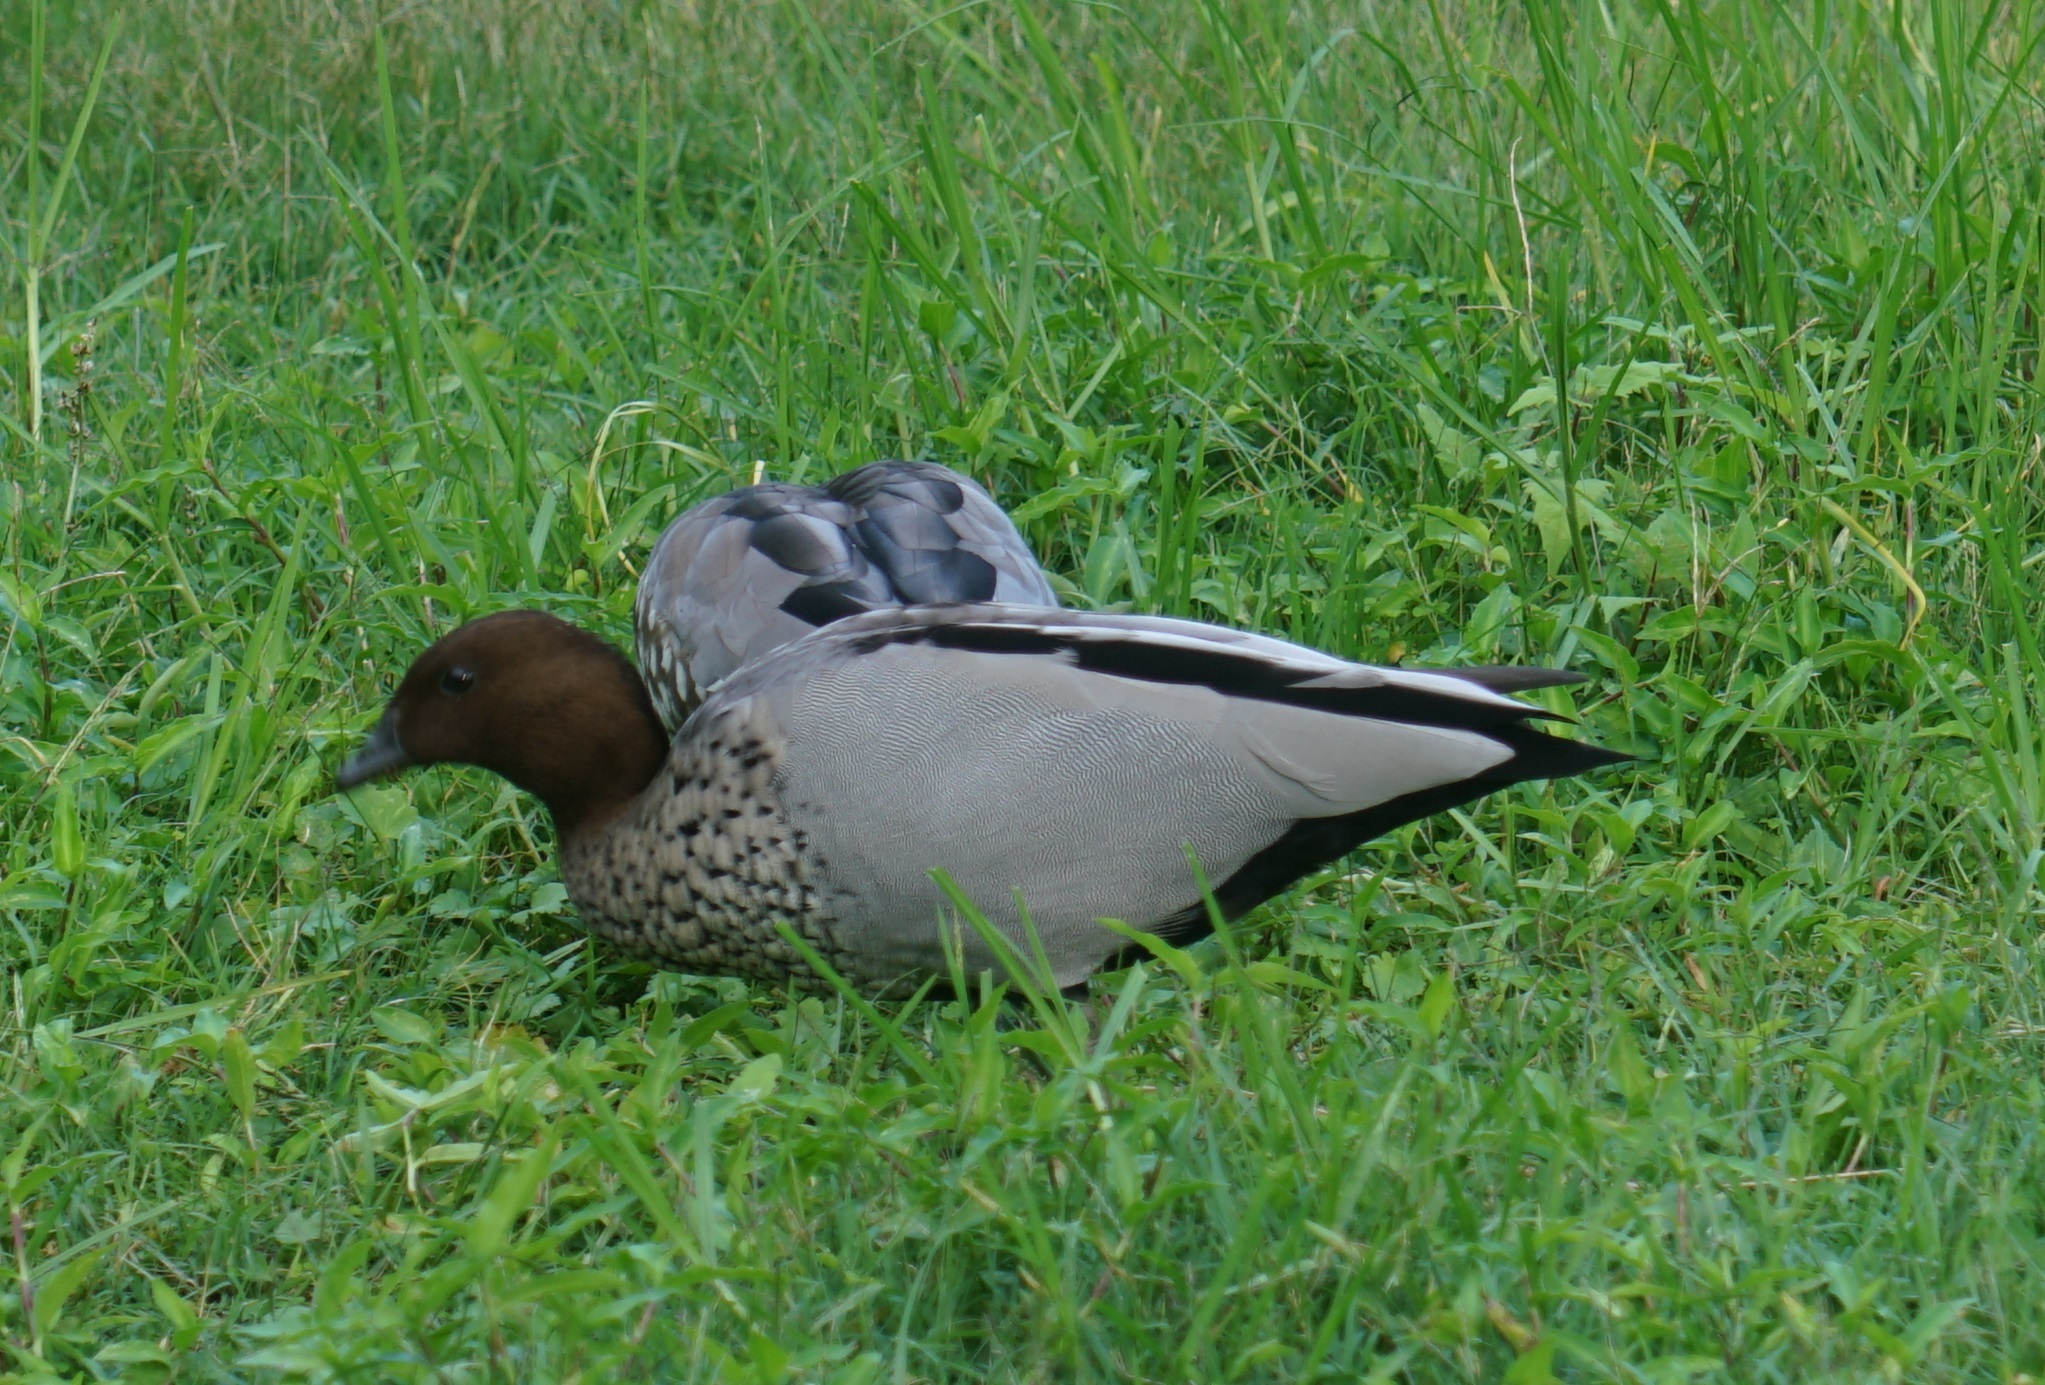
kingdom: Animalia
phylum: Chordata
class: Aves
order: Anseriformes
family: Anatidae
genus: Chenonetta
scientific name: Chenonetta jubata
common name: Maned duck
